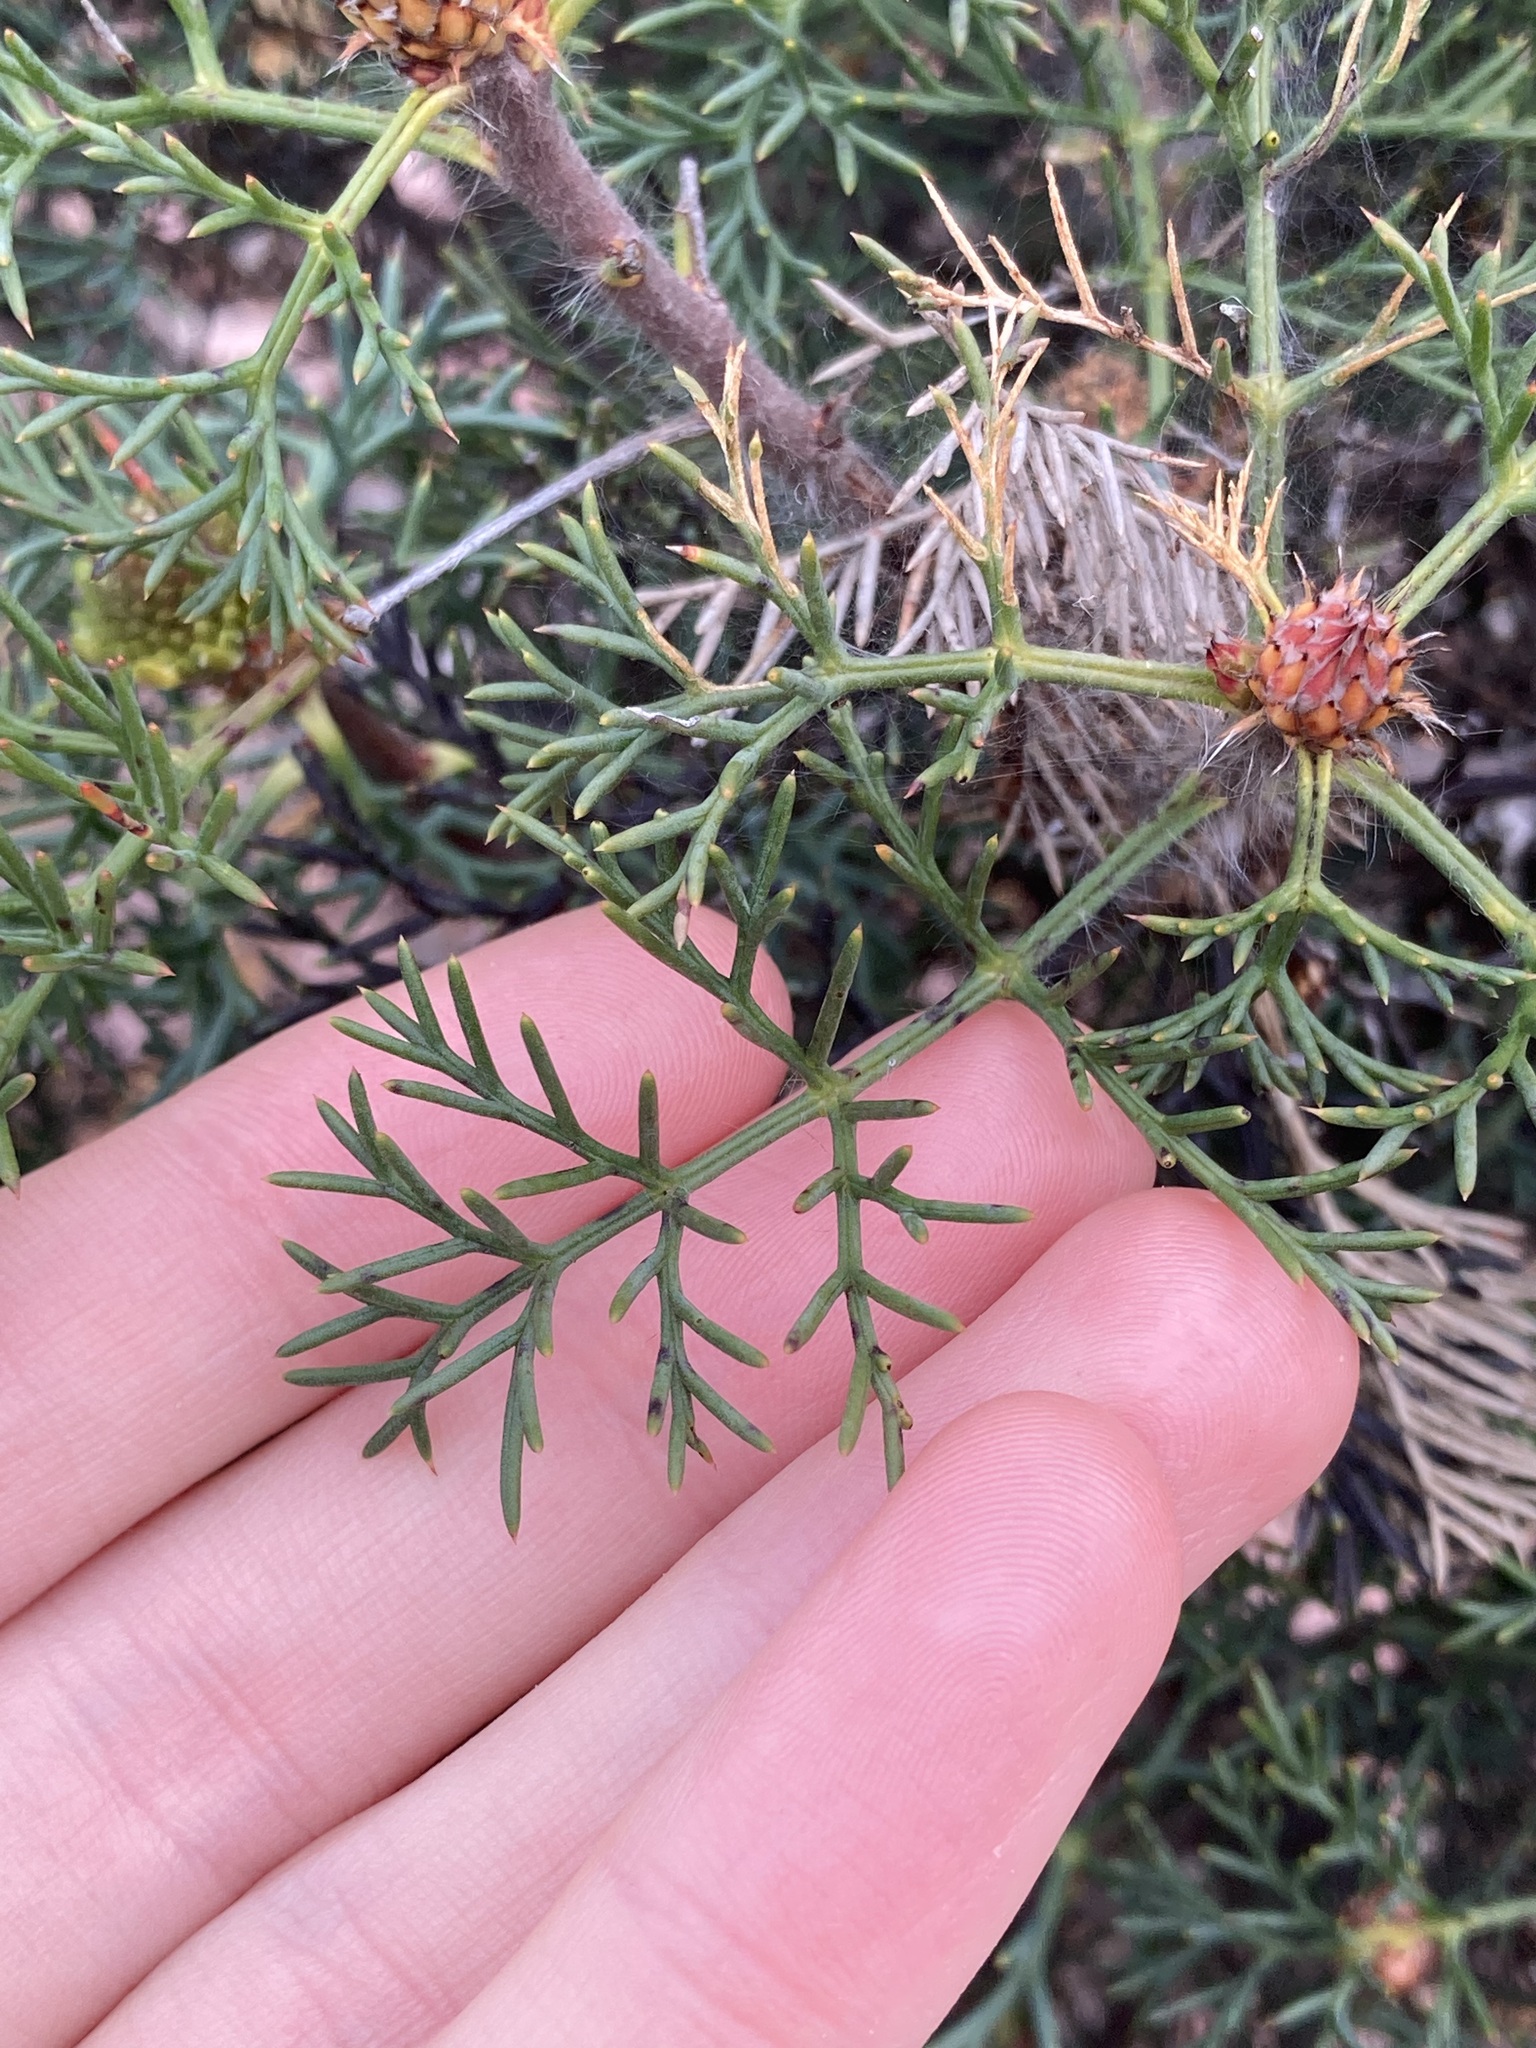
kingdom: Plantae
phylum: Tracheophyta
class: Magnoliopsida
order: Proteales
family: Proteaceae
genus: Petrophile
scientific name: Petrophile divaricata
